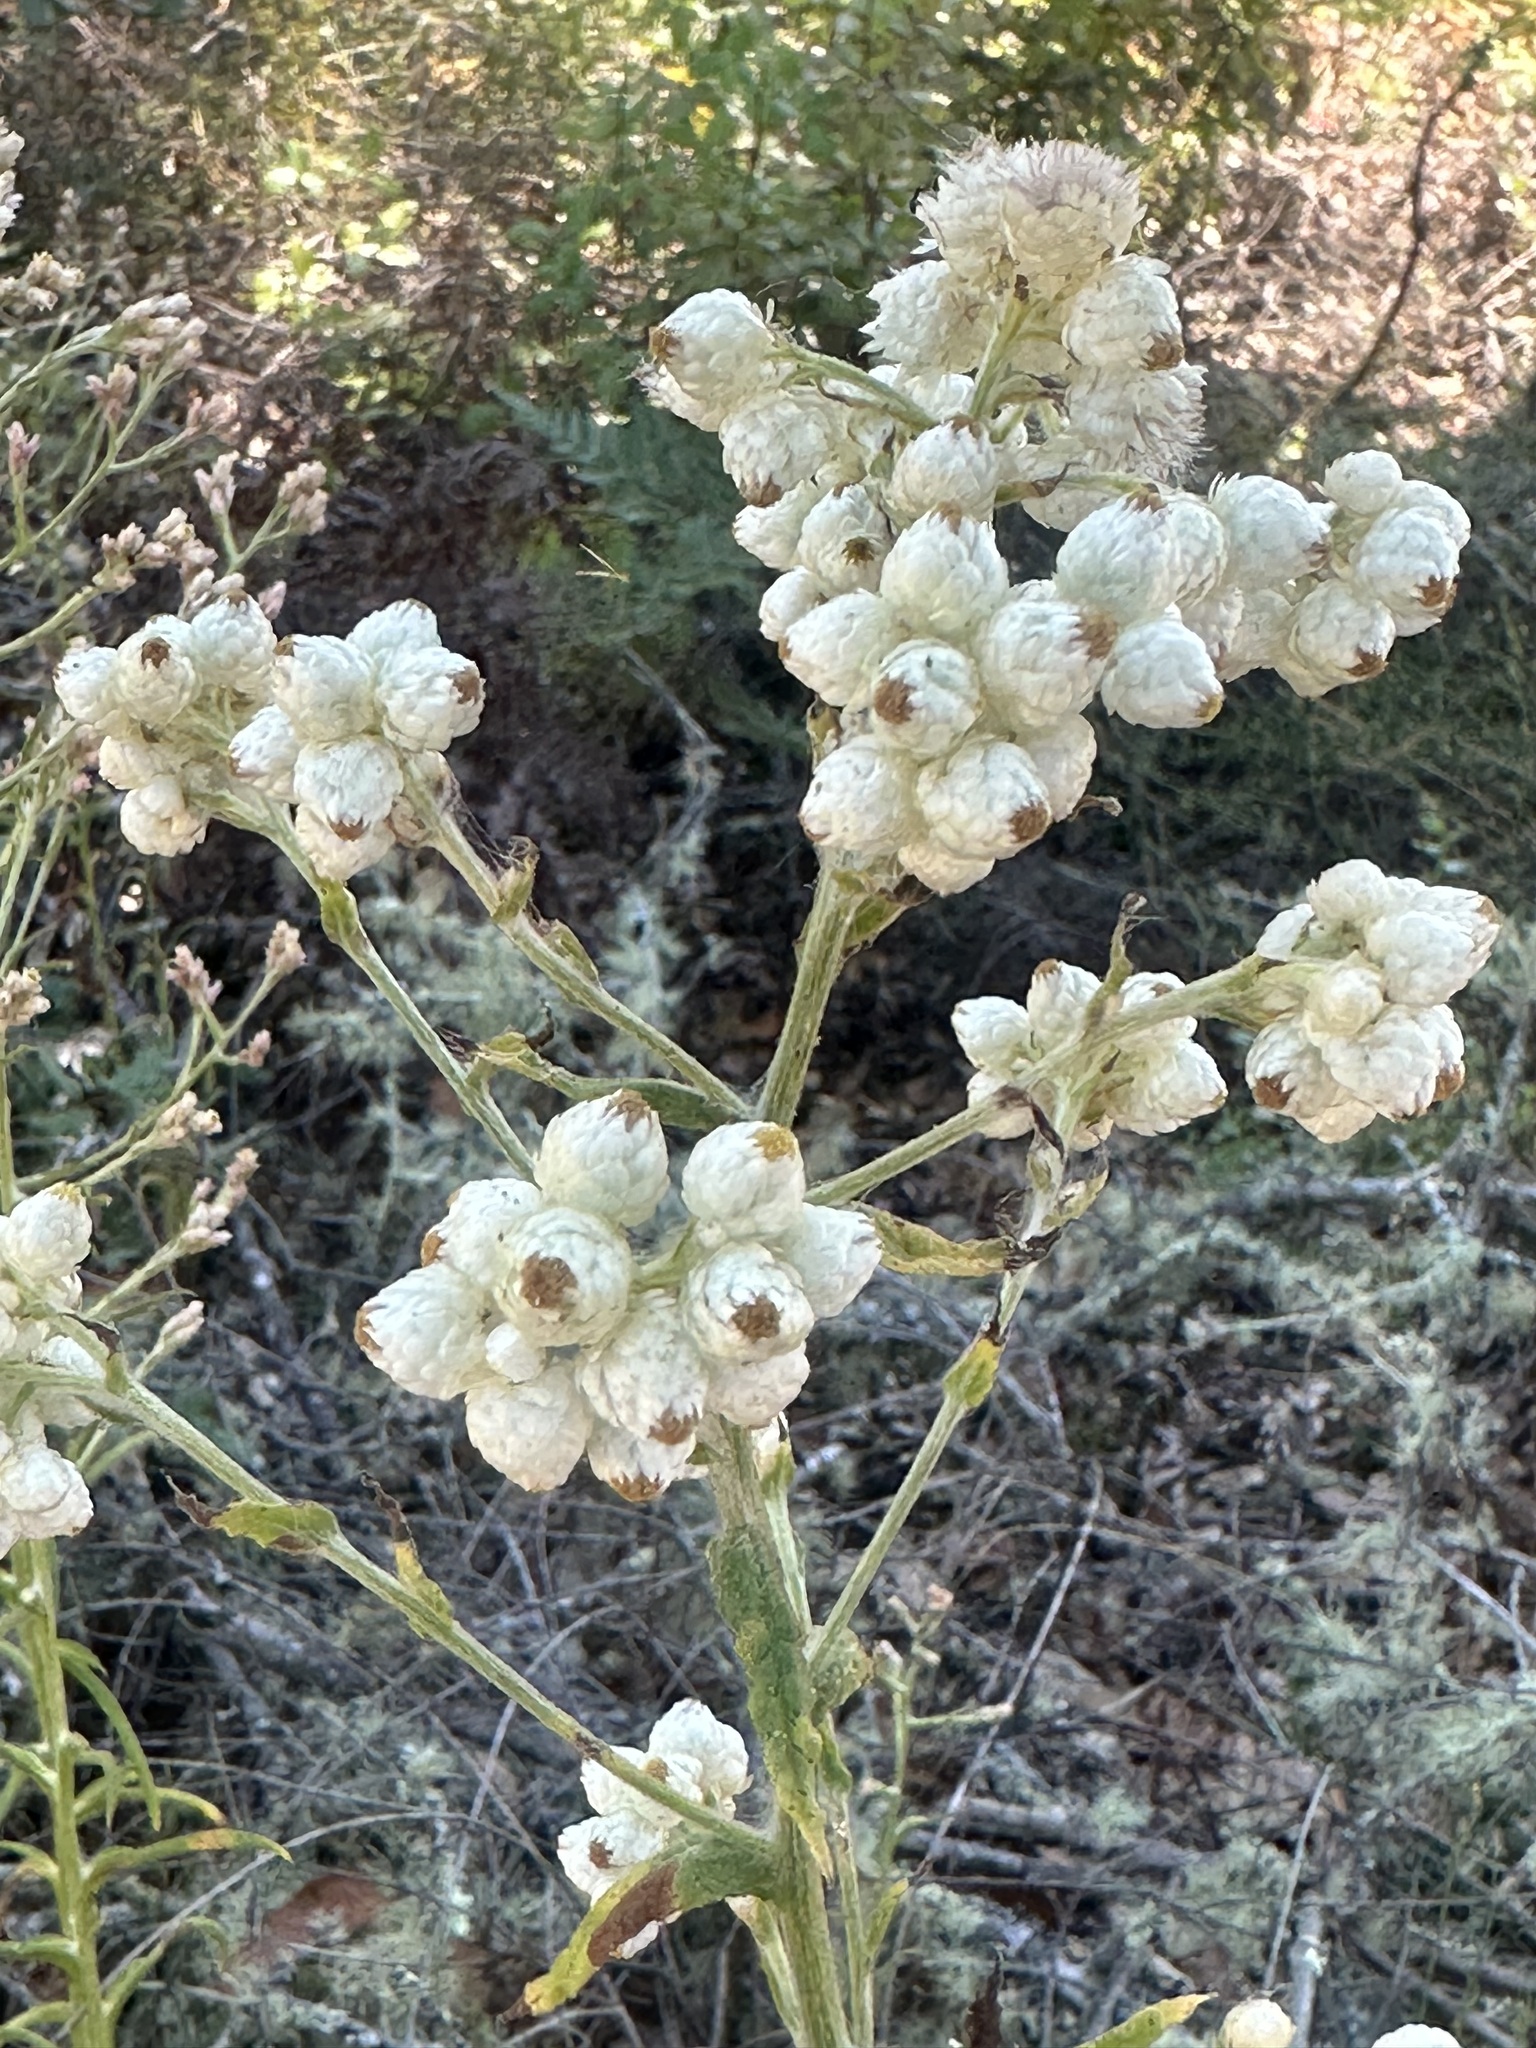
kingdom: Plantae
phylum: Tracheophyta
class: Magnoliopsida
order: Asterales
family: Asteraceae
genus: Pseudognaphalium
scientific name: Pseudognaphalium californicum
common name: California rabbit-tobacco
